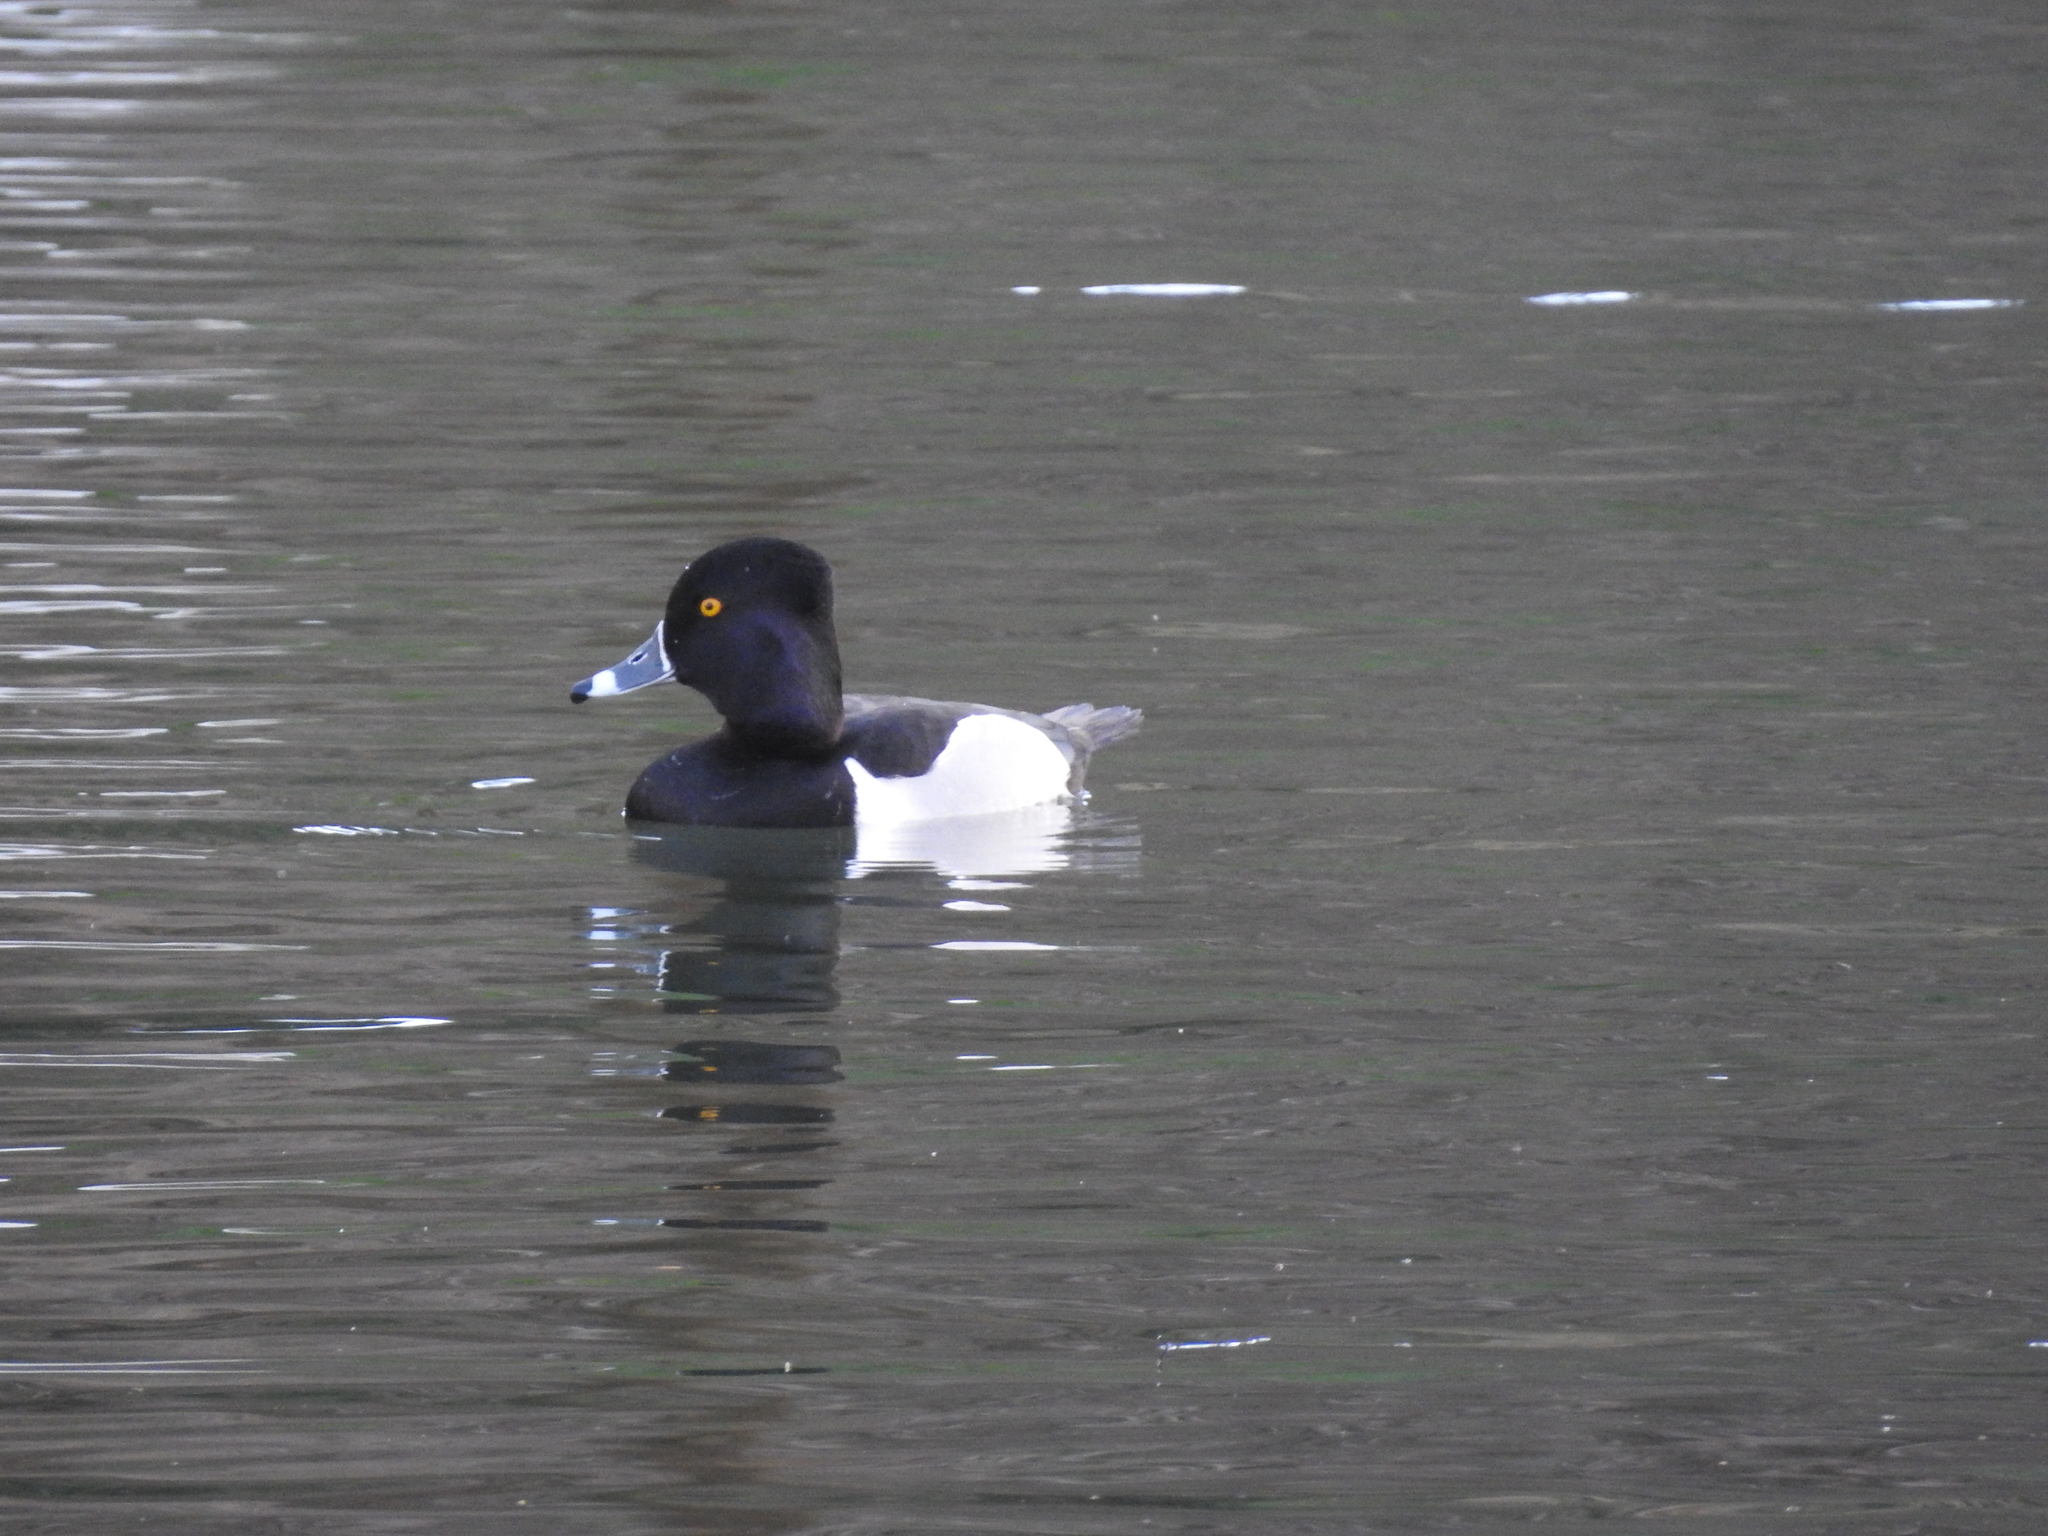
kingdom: Animalia
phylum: Chordata
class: Aves
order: Anseriformes
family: Anatidae
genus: Aythya
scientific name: Aythya collaris
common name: Ring-necked duck
